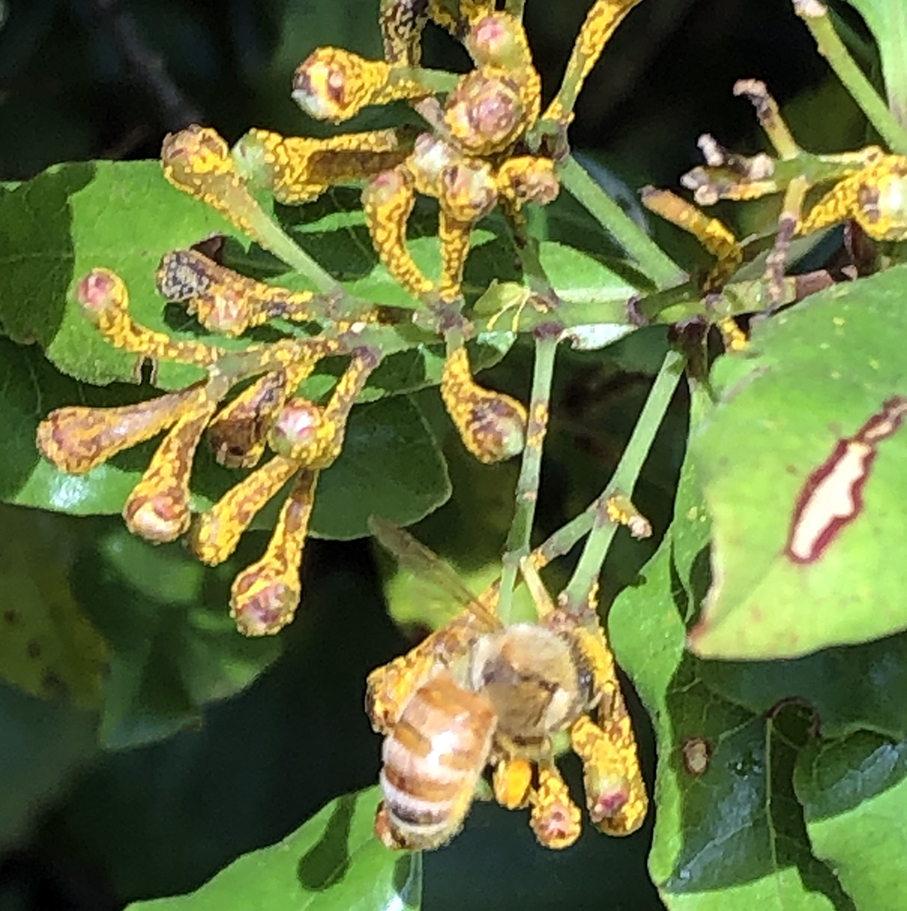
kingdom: Animalia
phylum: Arthropoda
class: Insecta
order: Hymenoptera
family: Apidae
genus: Apis
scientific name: Apis mellifera
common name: Honey bee
